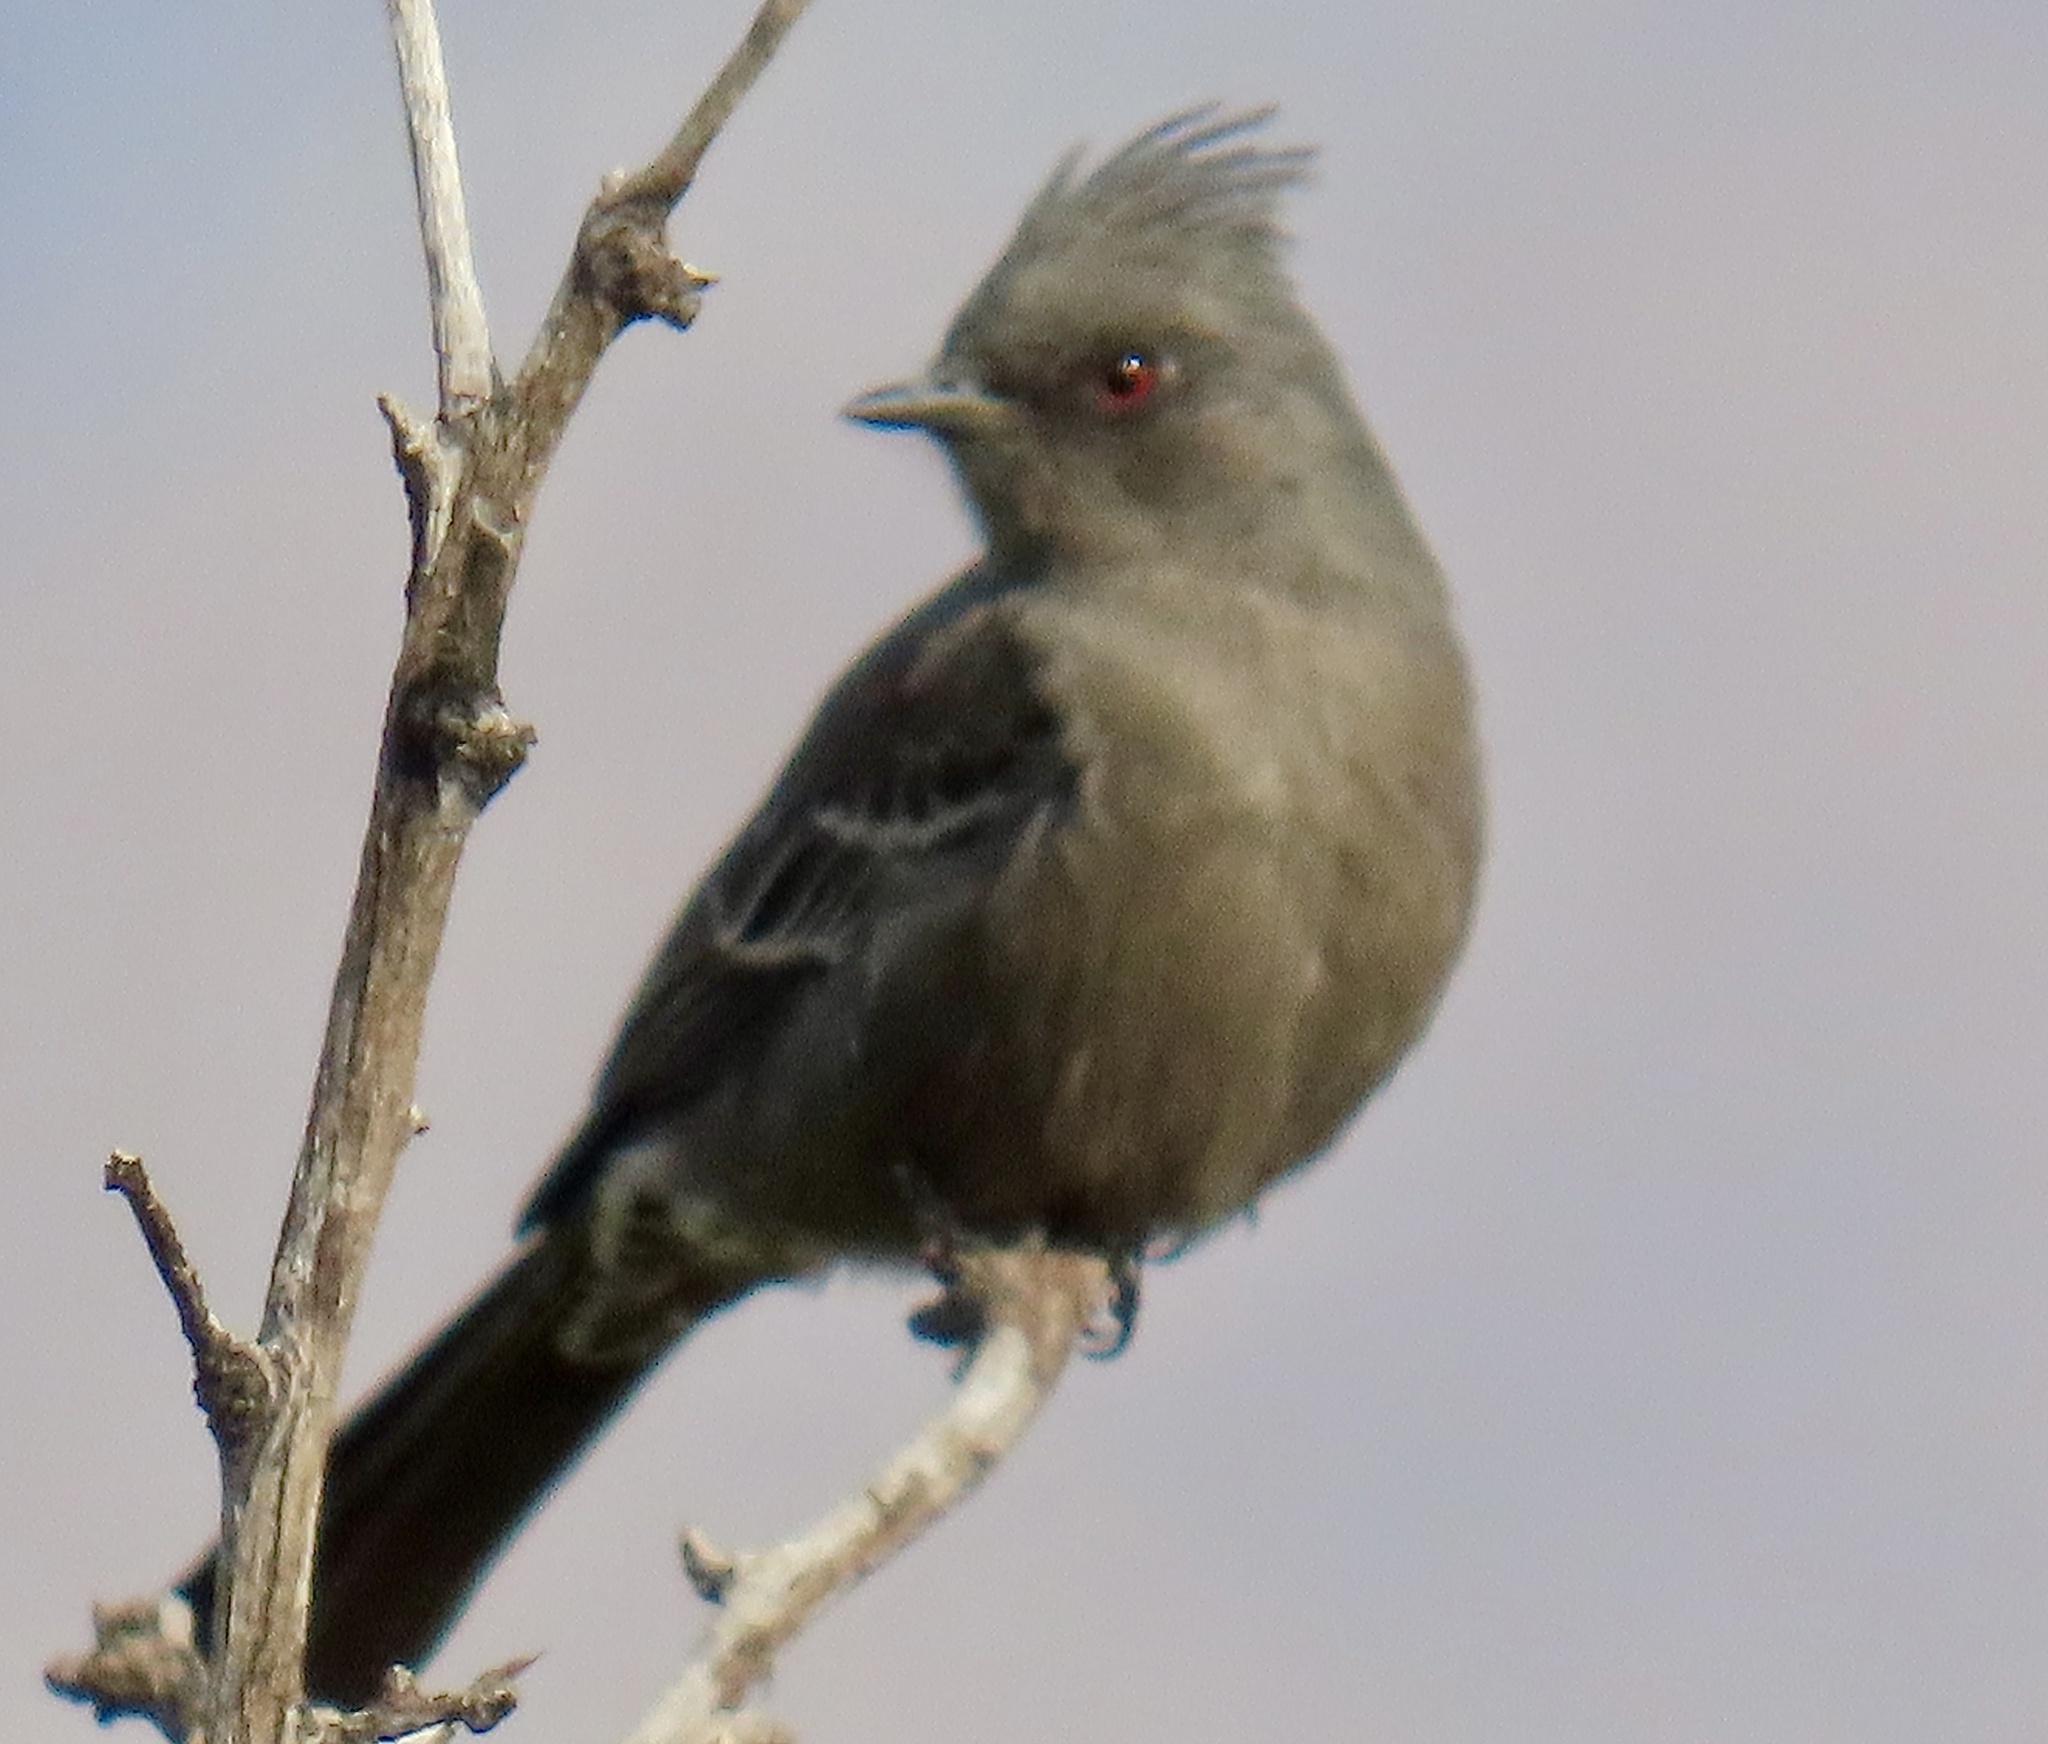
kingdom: Animalia
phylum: Chordata
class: Aves
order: Passeriformes
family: Ptilogonatidae
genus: Phainopepla
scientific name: Phainopepla nitens
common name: Phainopepla
